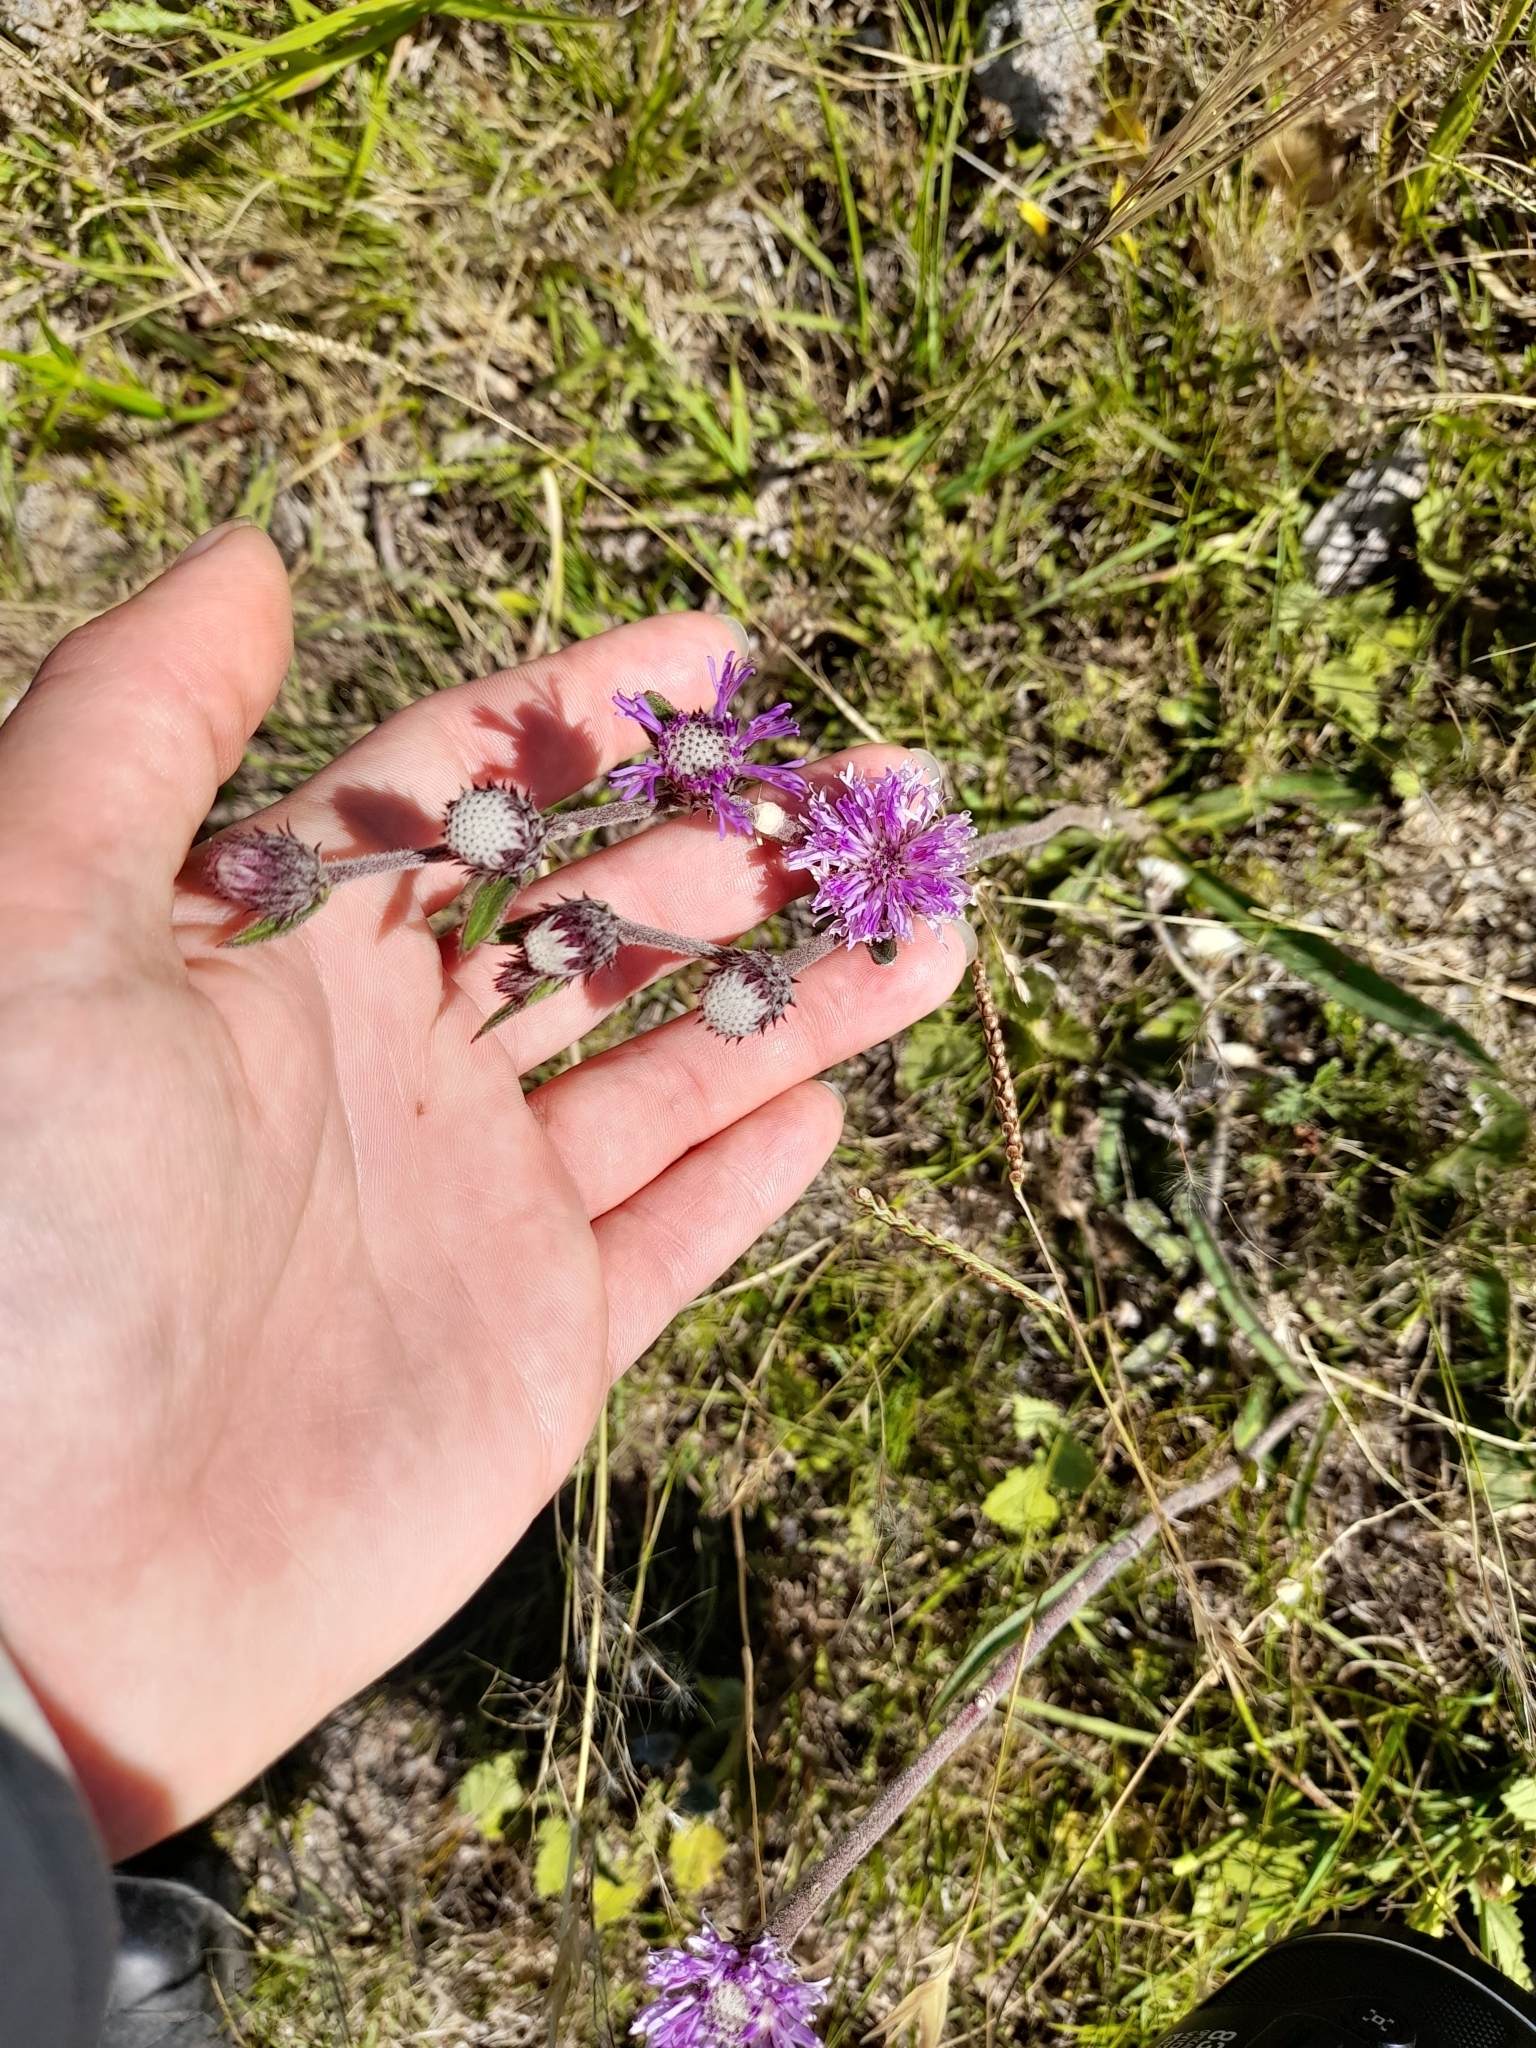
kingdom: Plantae
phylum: Tracheophyta
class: Magnoliopsida
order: Asterales
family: Asteraceae
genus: Chrysolaena
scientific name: Chrysolaena flexuosa
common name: Zig-zag vernonia
